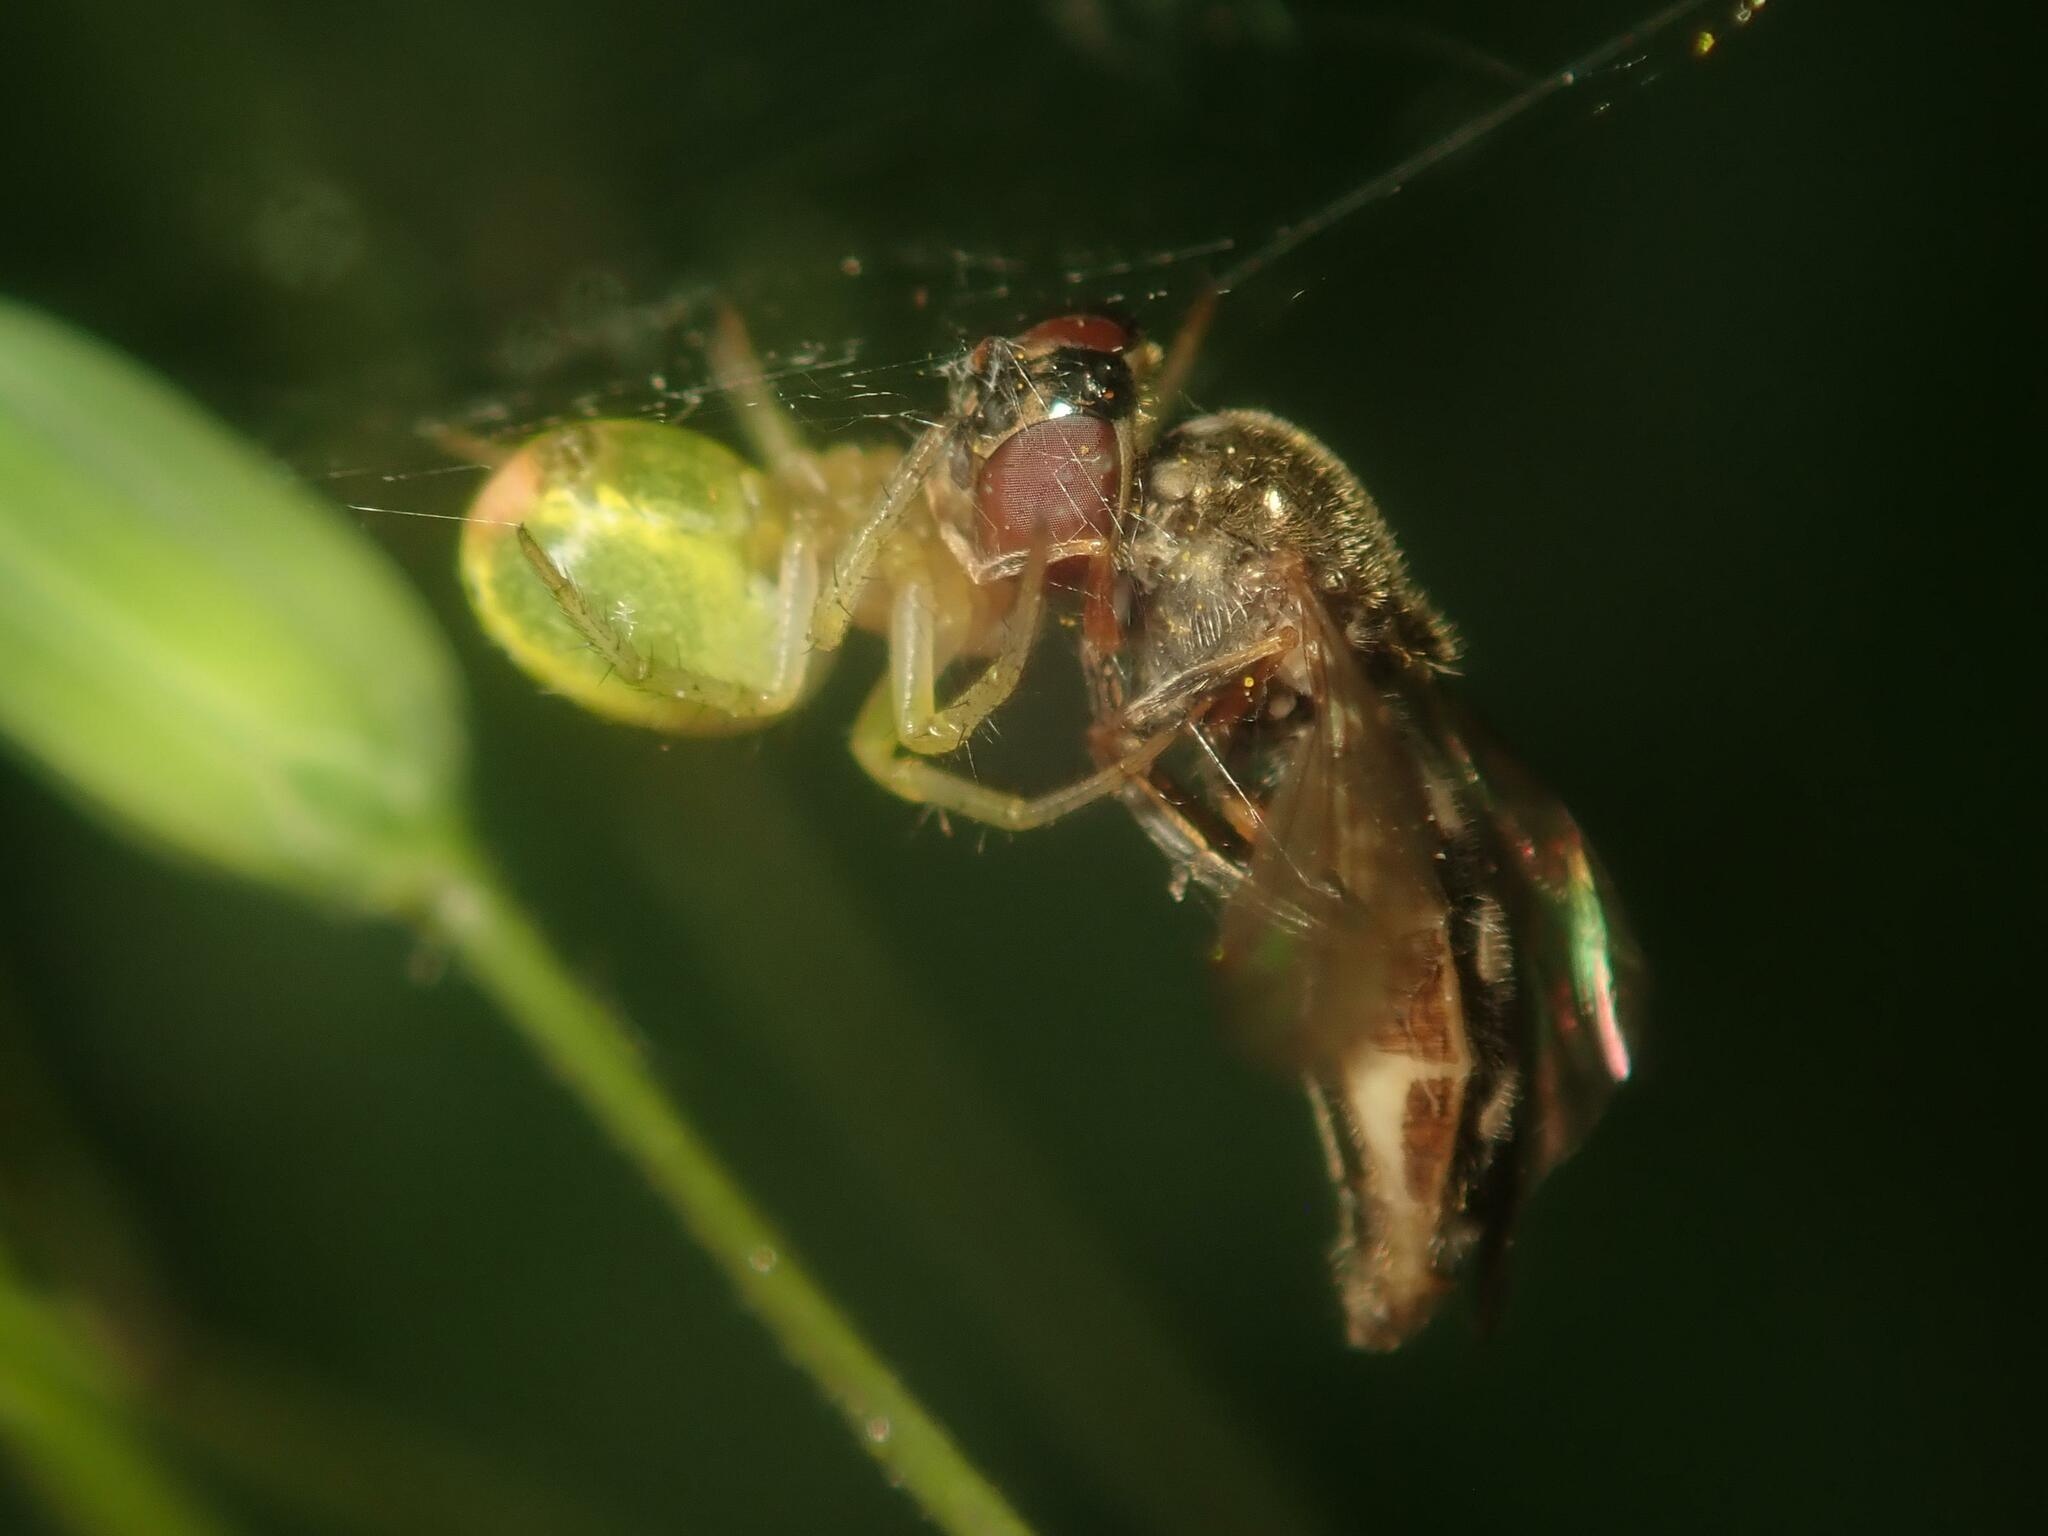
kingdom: Animalia
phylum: Arthropoda
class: Arachnida
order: Araneae
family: Araneidae
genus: Araniella
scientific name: Araniella
